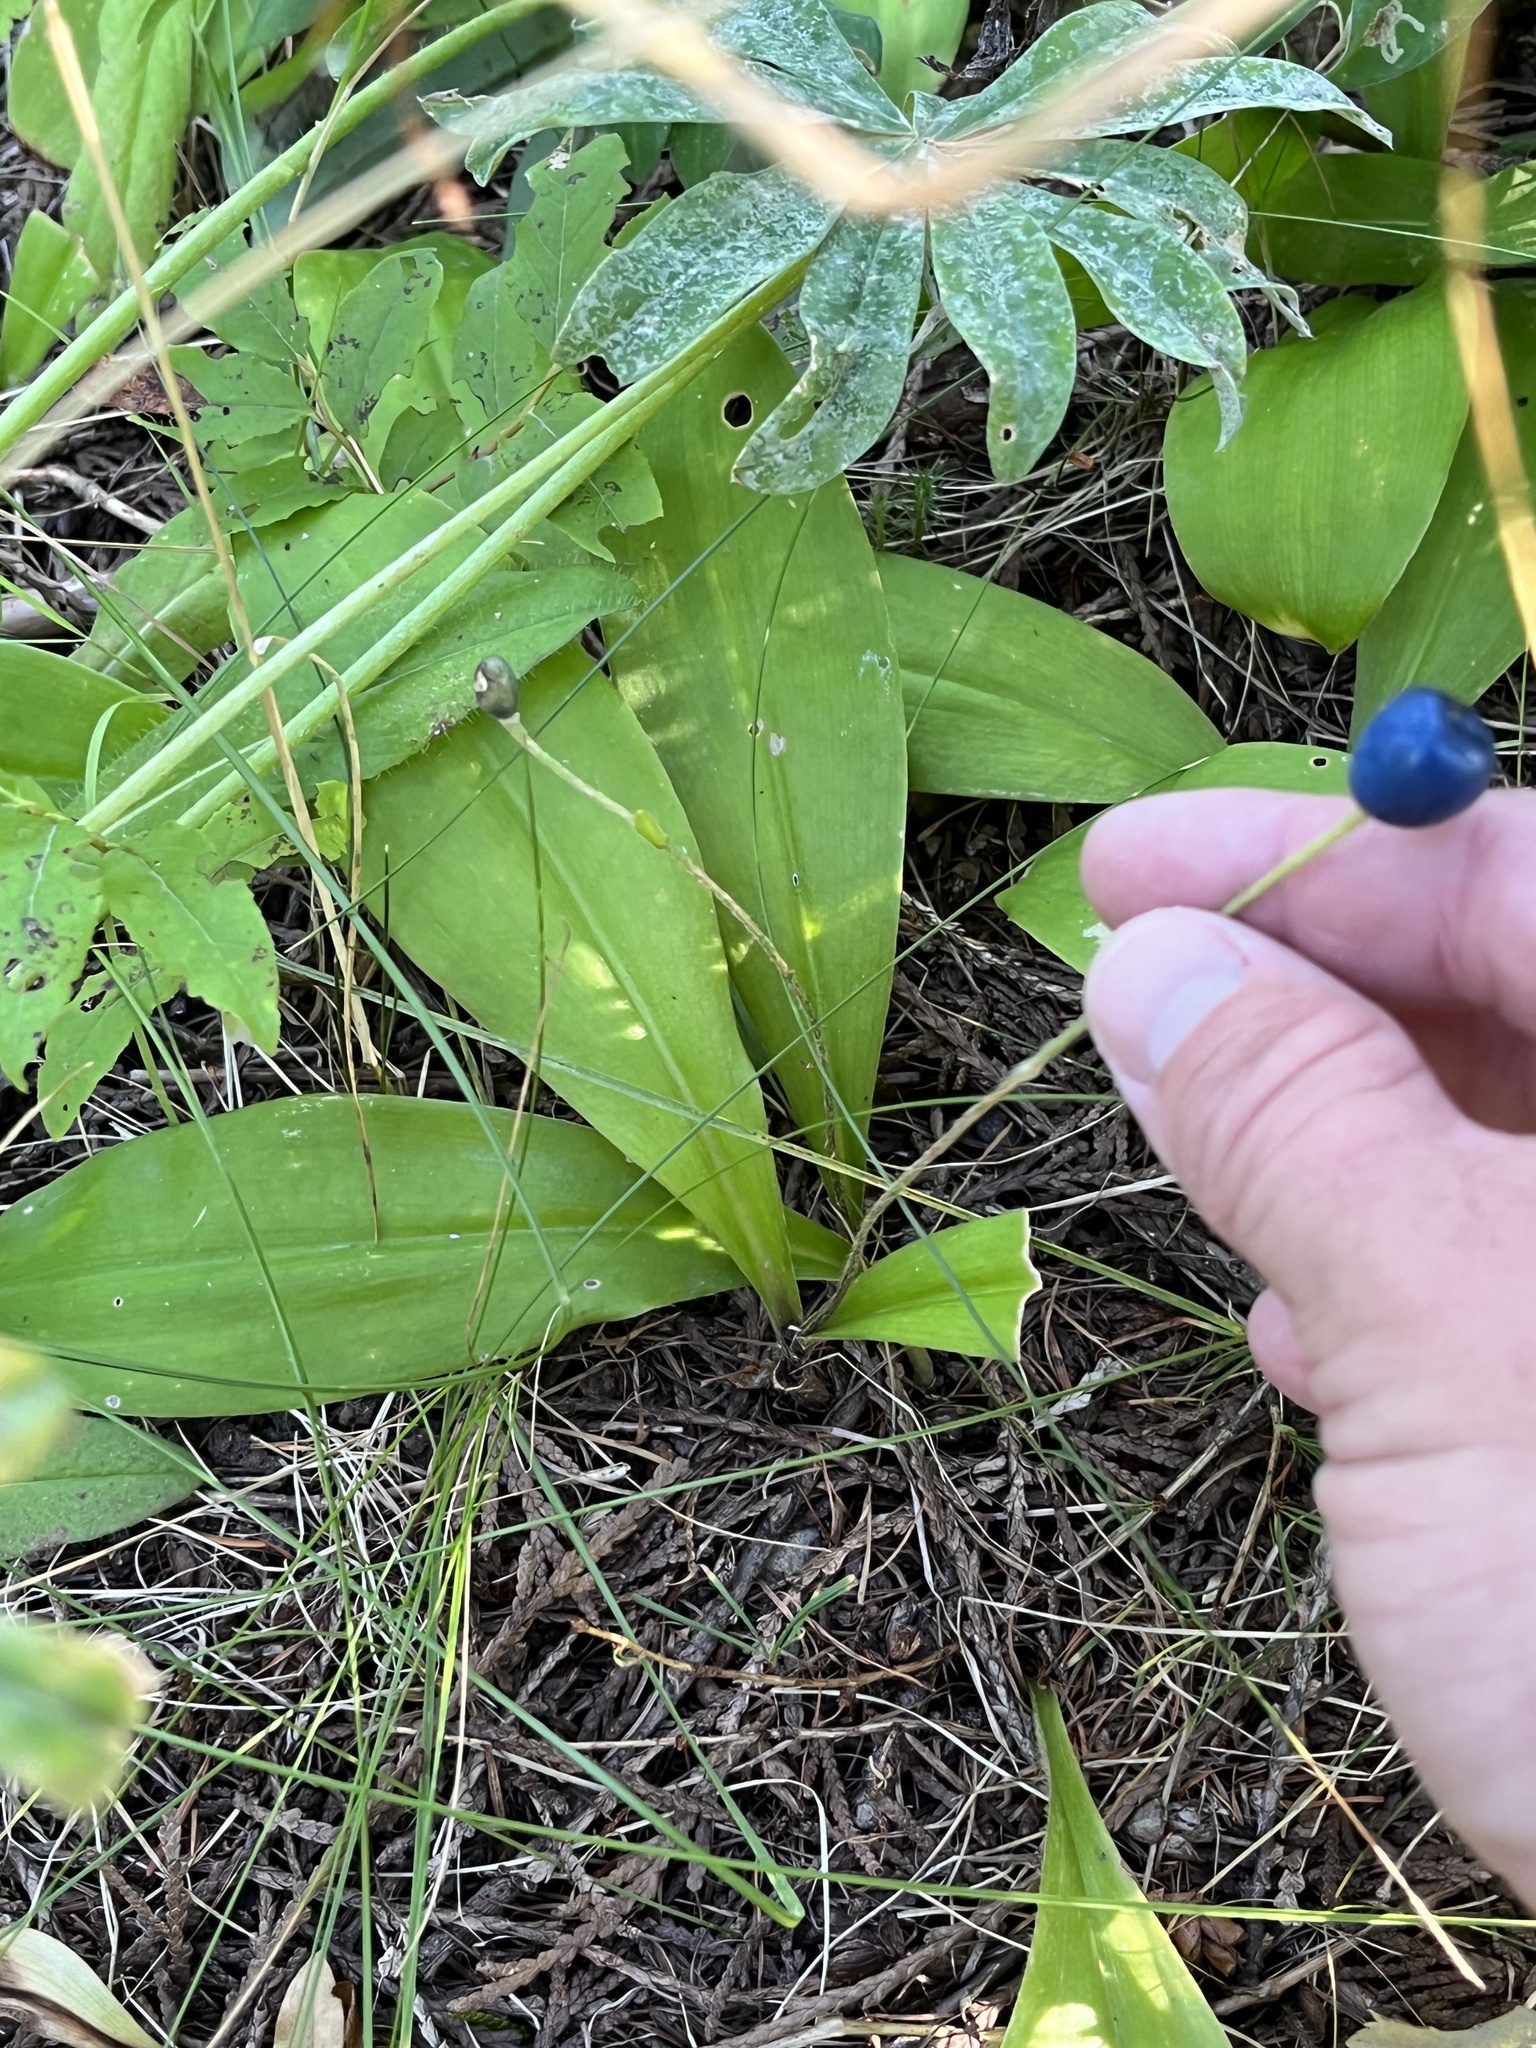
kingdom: Plantae
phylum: Tracheophyta
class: Liliopsida
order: Liliales
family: Liliaceae
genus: Clintonia
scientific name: Clintonia uniflora
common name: Queen's cup
